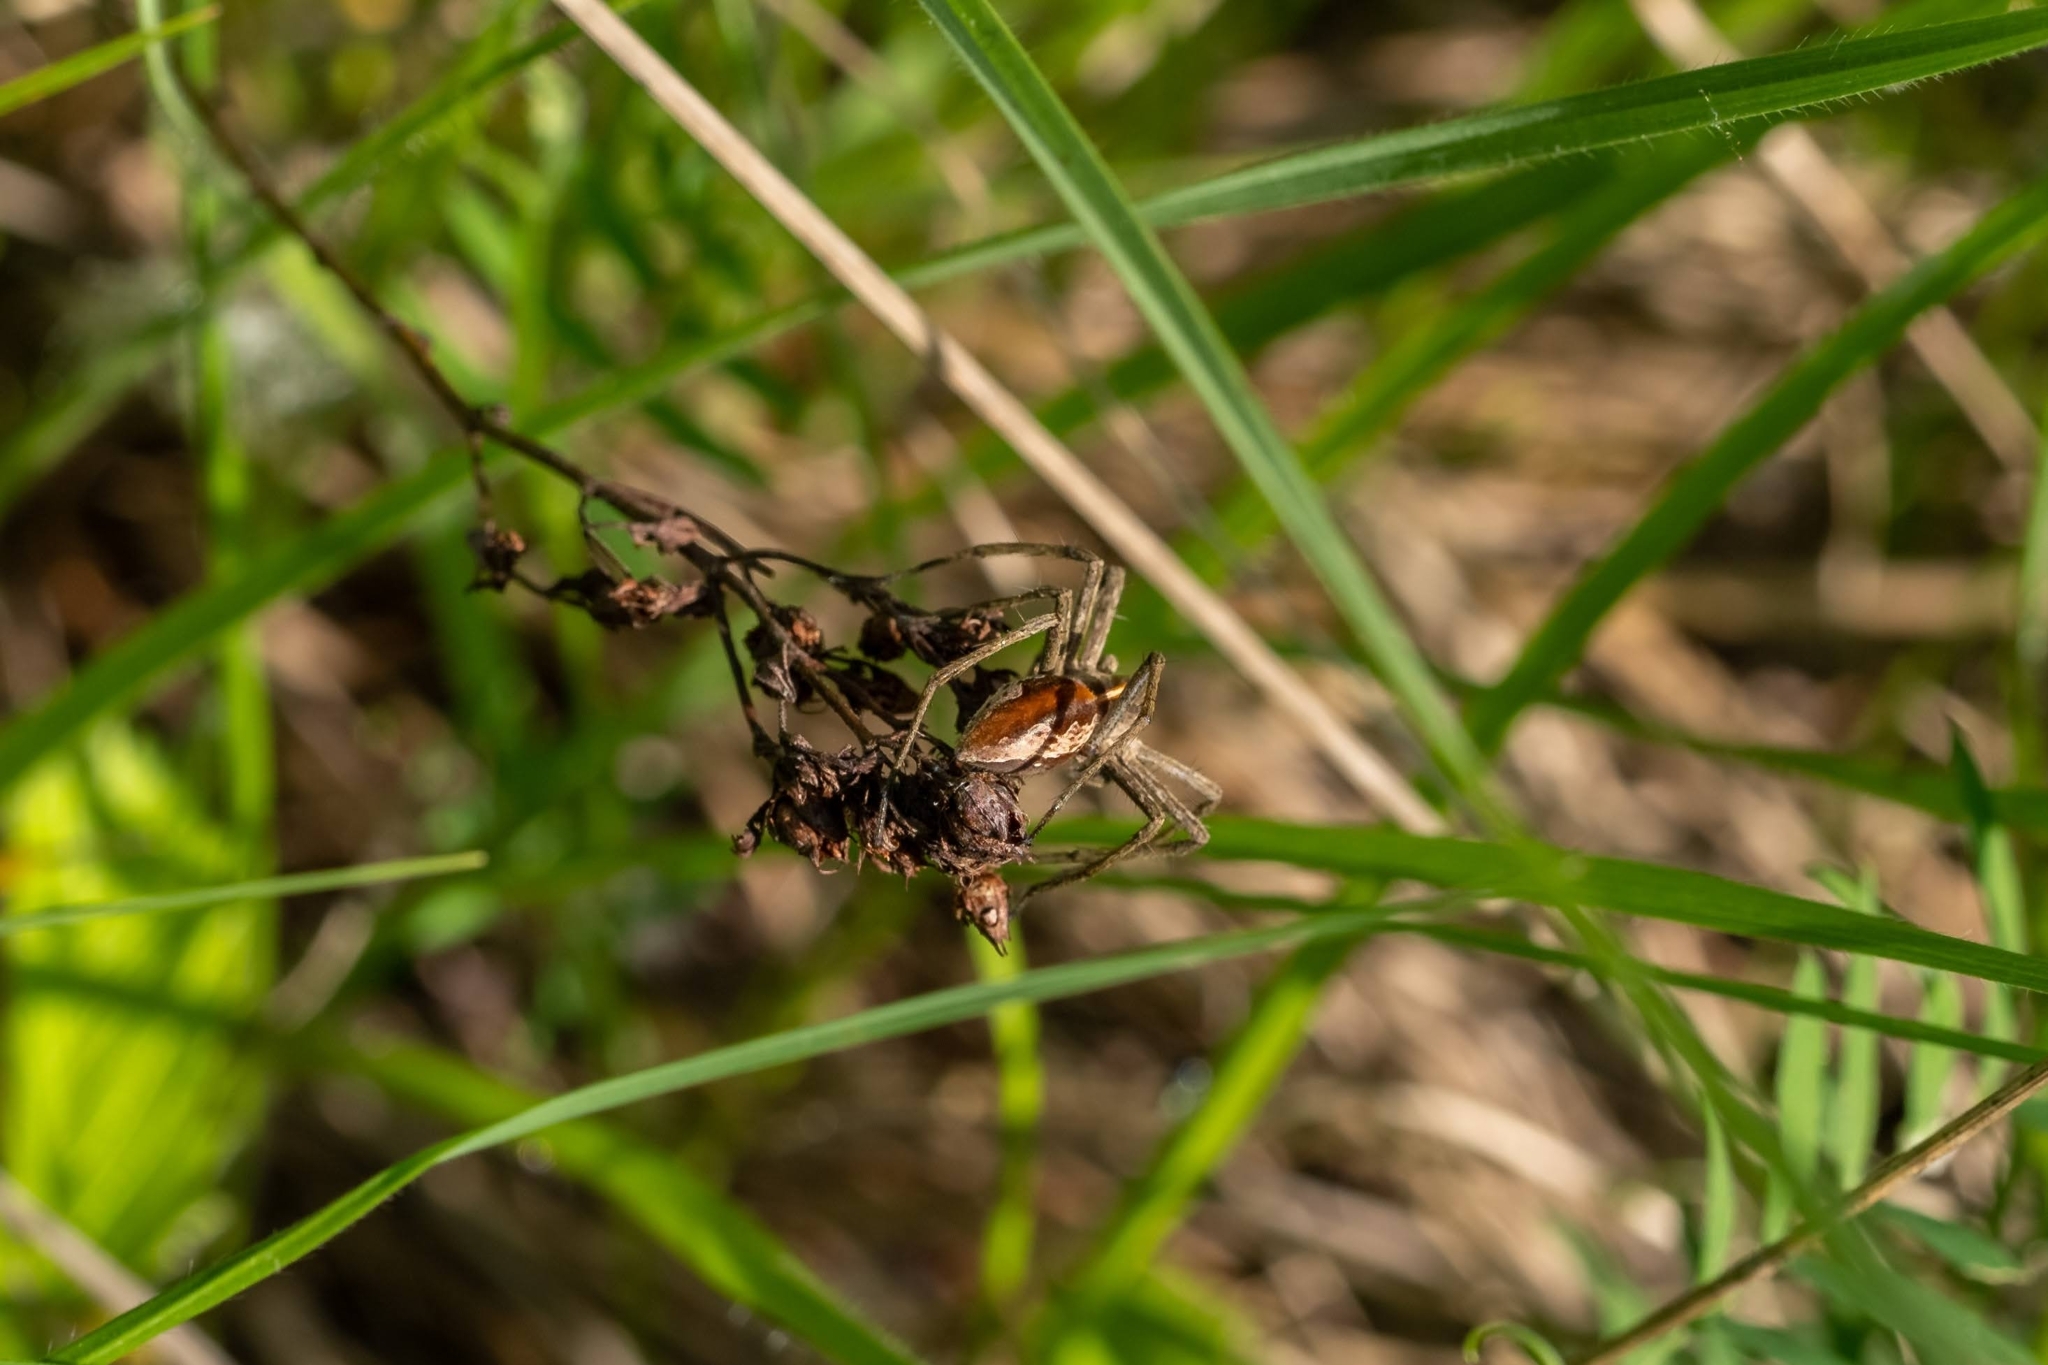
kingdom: Animalia
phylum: Arthropoda
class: Arachnida
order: Araneae
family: Pisauridae
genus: Pisaura
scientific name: Pisaura mirabilis
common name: Tent spider
